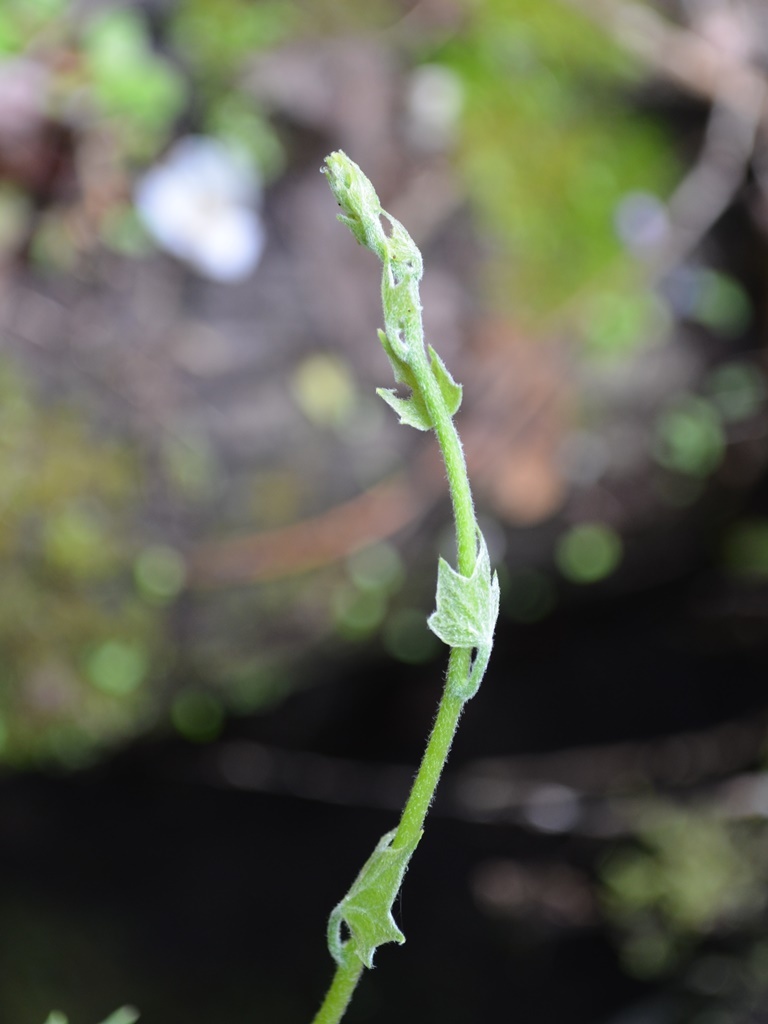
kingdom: Plantae
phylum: Tracheophyta
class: Magnoliopsida
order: Ranunculales
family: Menispermaceae
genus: Menispermum
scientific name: Menispermum canadense
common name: Moonseed
